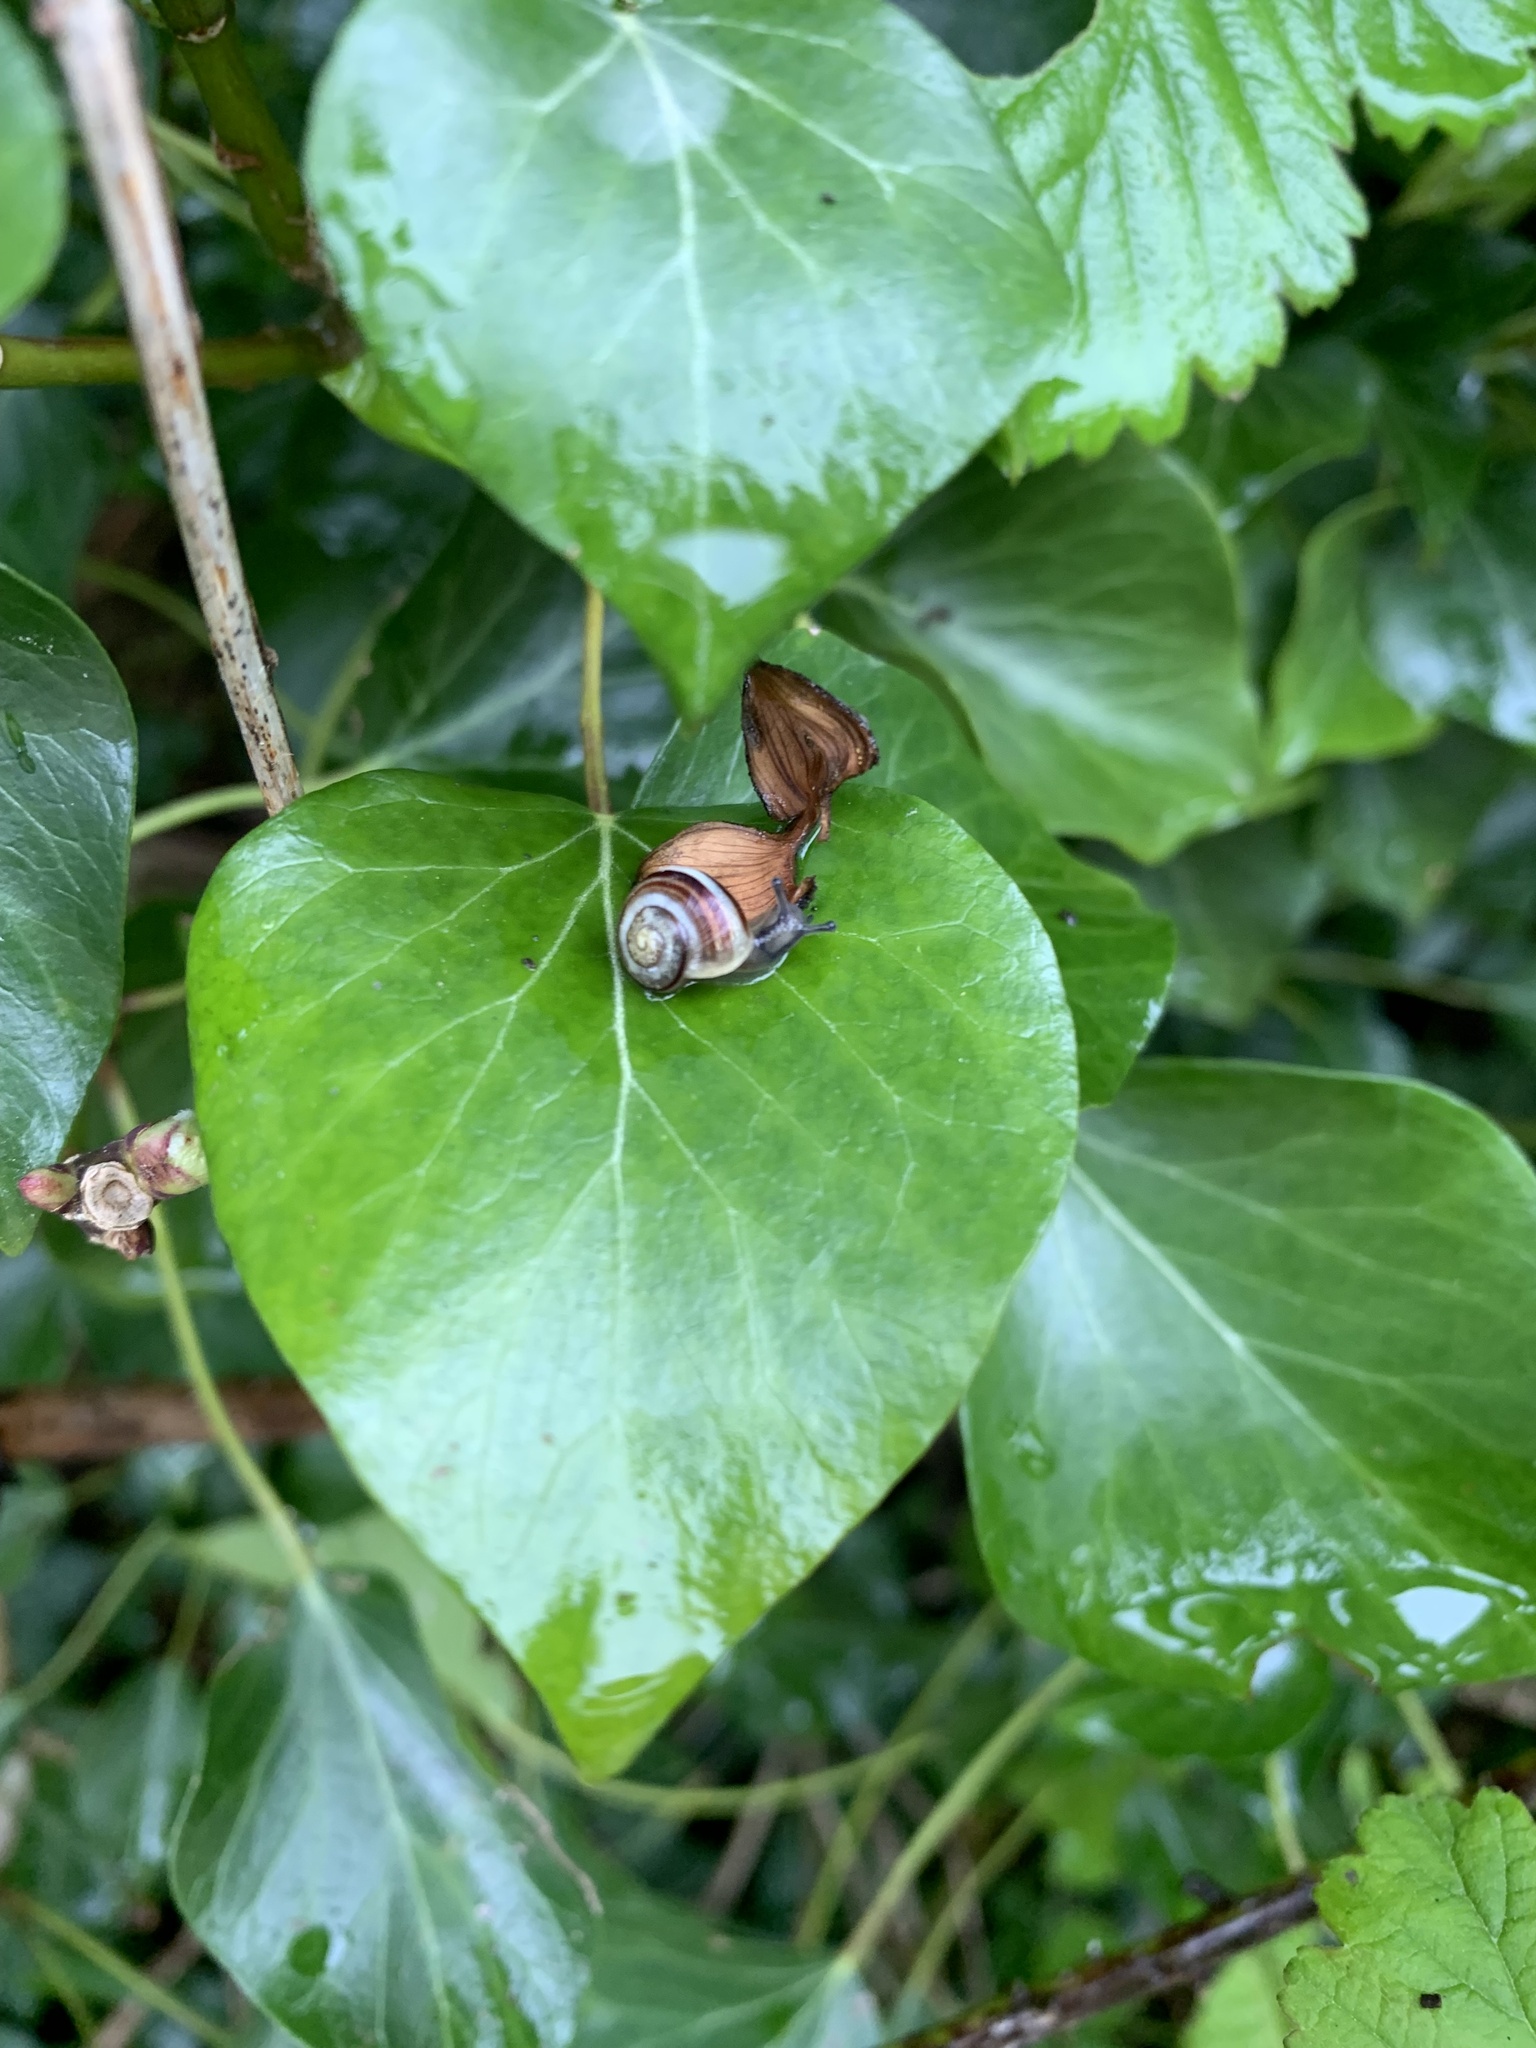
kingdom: Animalia
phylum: Mollusca
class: Gastropoda
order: Stylommatophora
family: Helicidae
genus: Cepaea
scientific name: Cepaea
